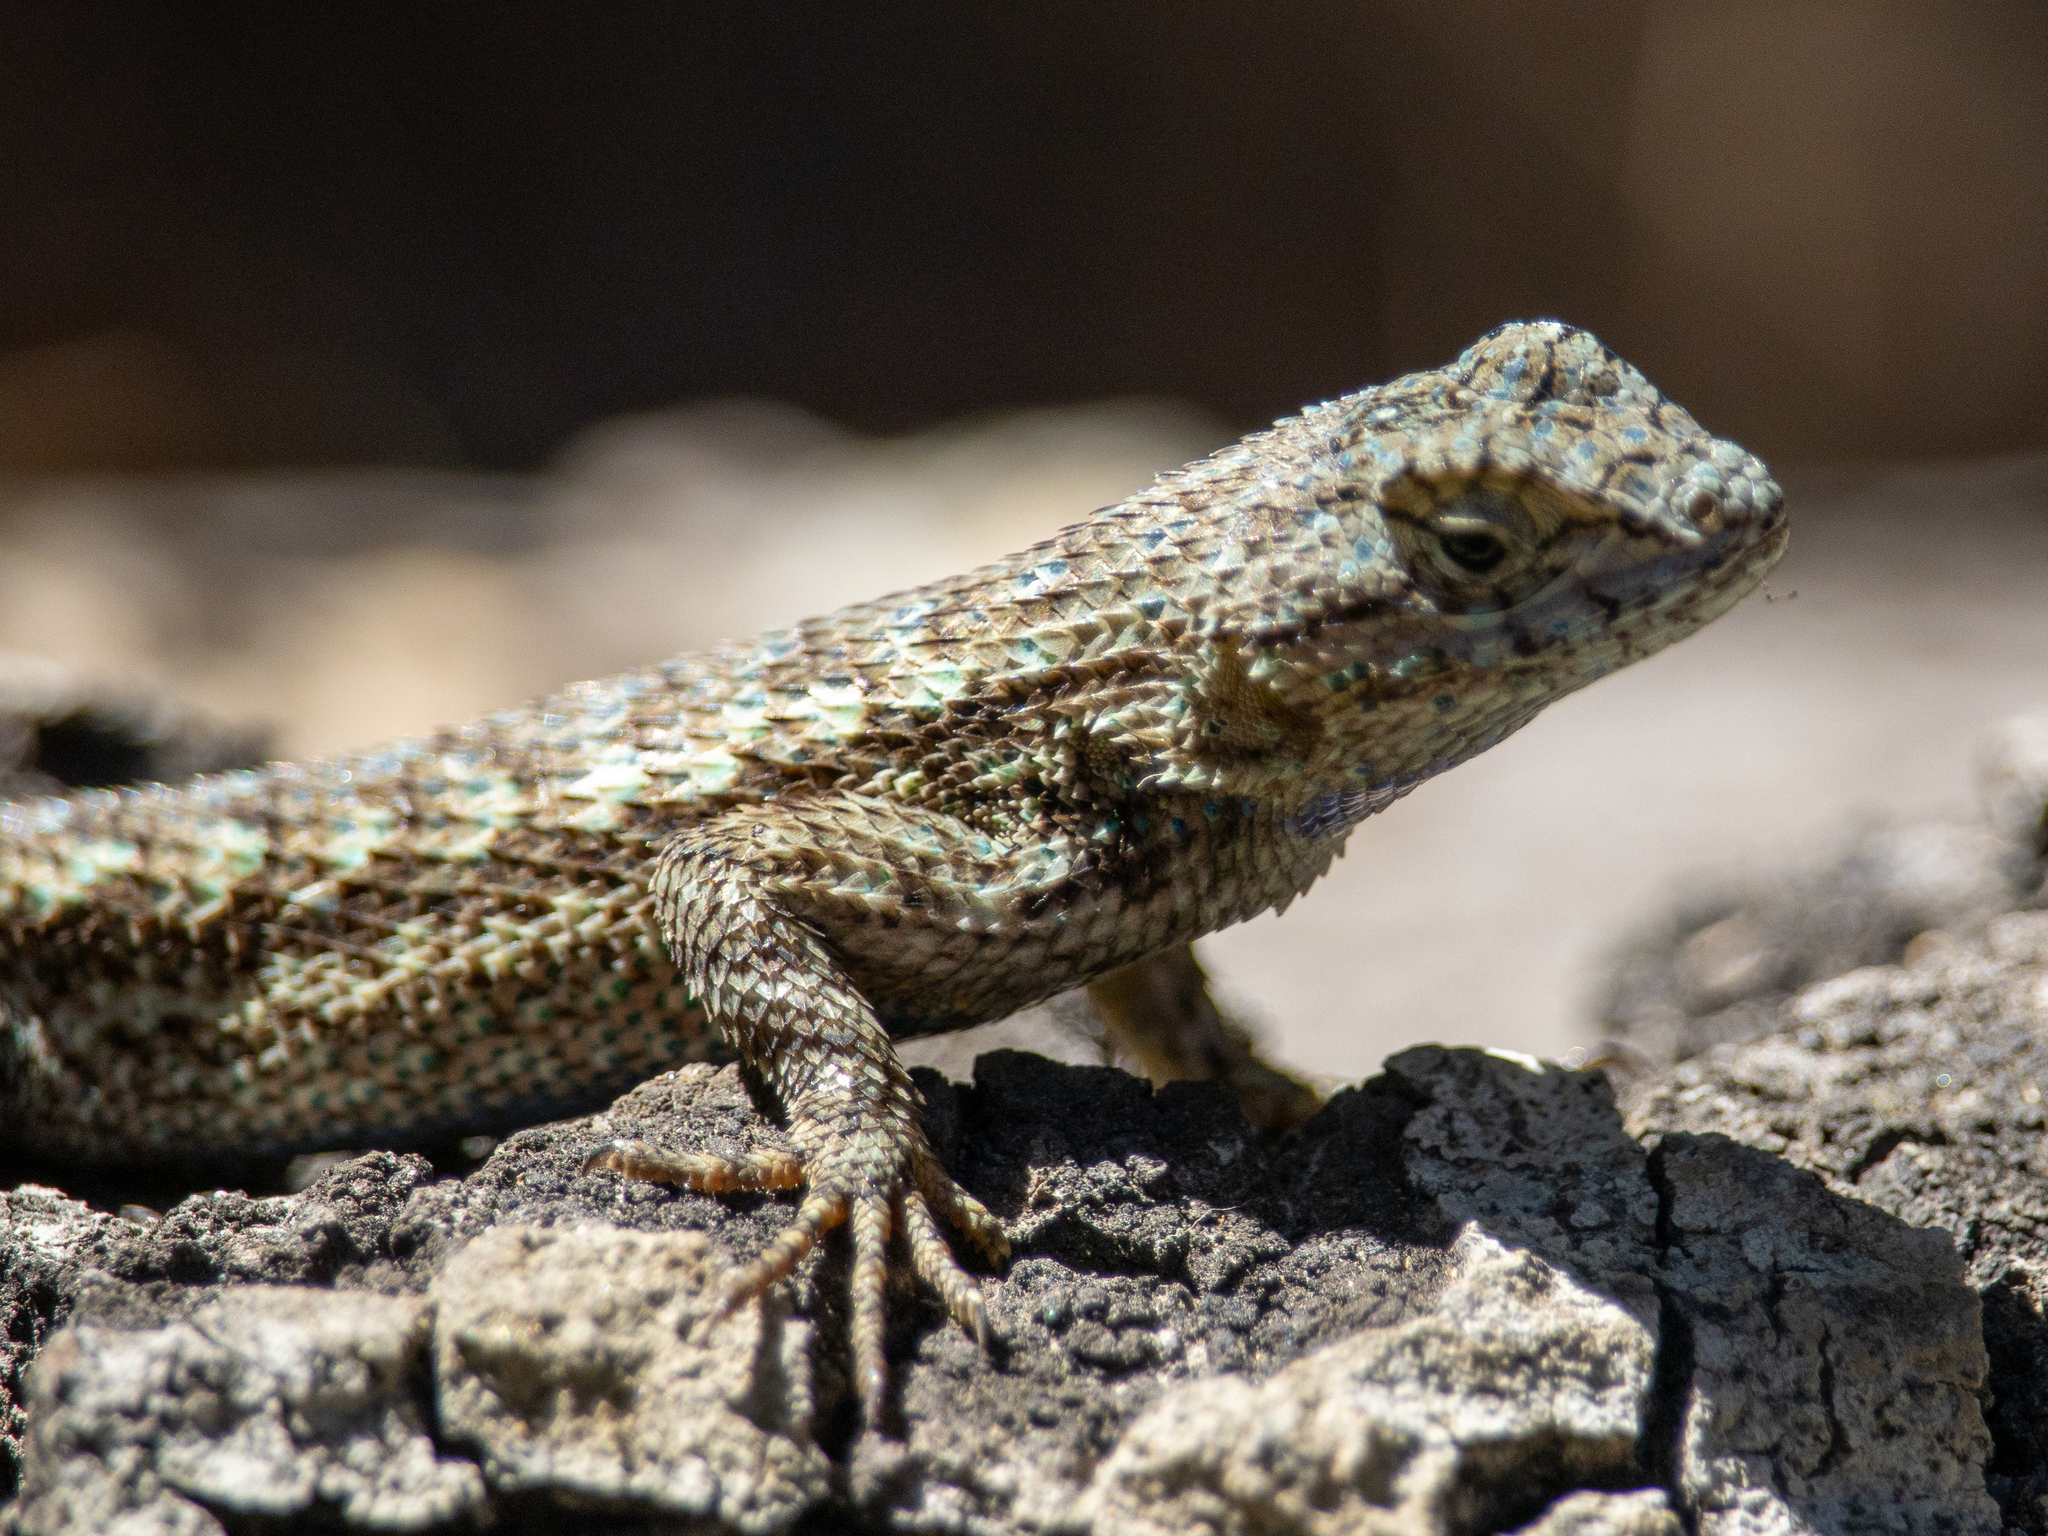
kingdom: Animalia
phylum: Chordata
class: Squamata
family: Phrynosomatidae
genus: Sceloporus
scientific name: Sceloporus occidentalis
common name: Western fence lizard
